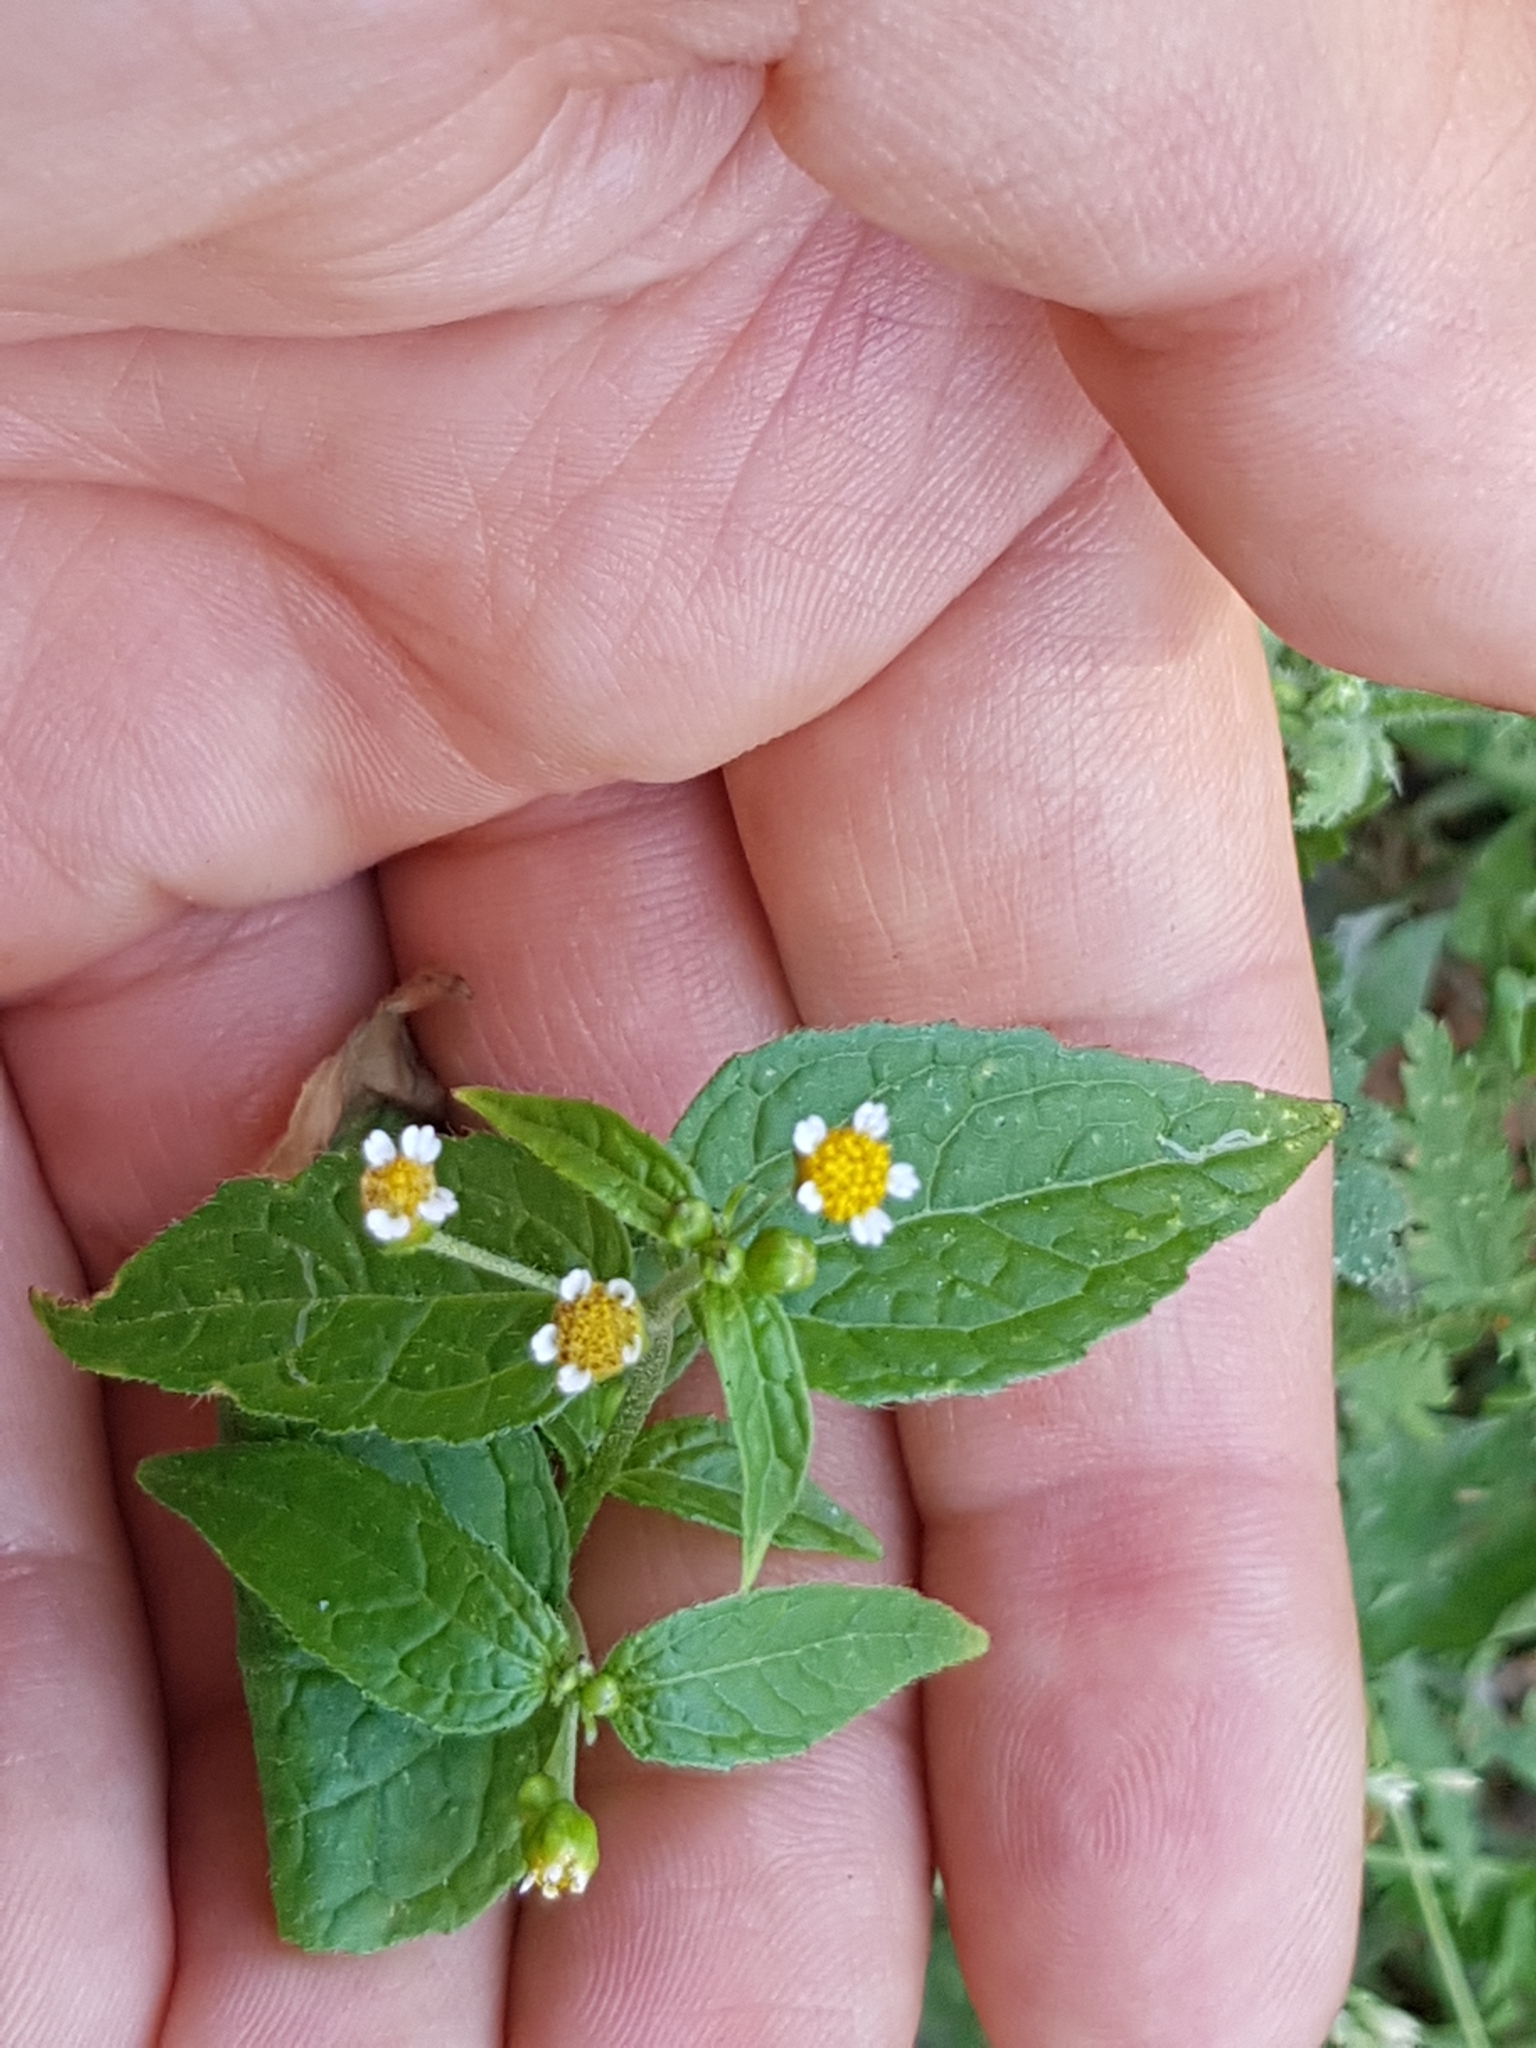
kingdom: Plantae
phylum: Tracheophyta
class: Magnoliopsida
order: Asterales
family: Asteraceae
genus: Galinsoga
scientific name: Galinsoga
